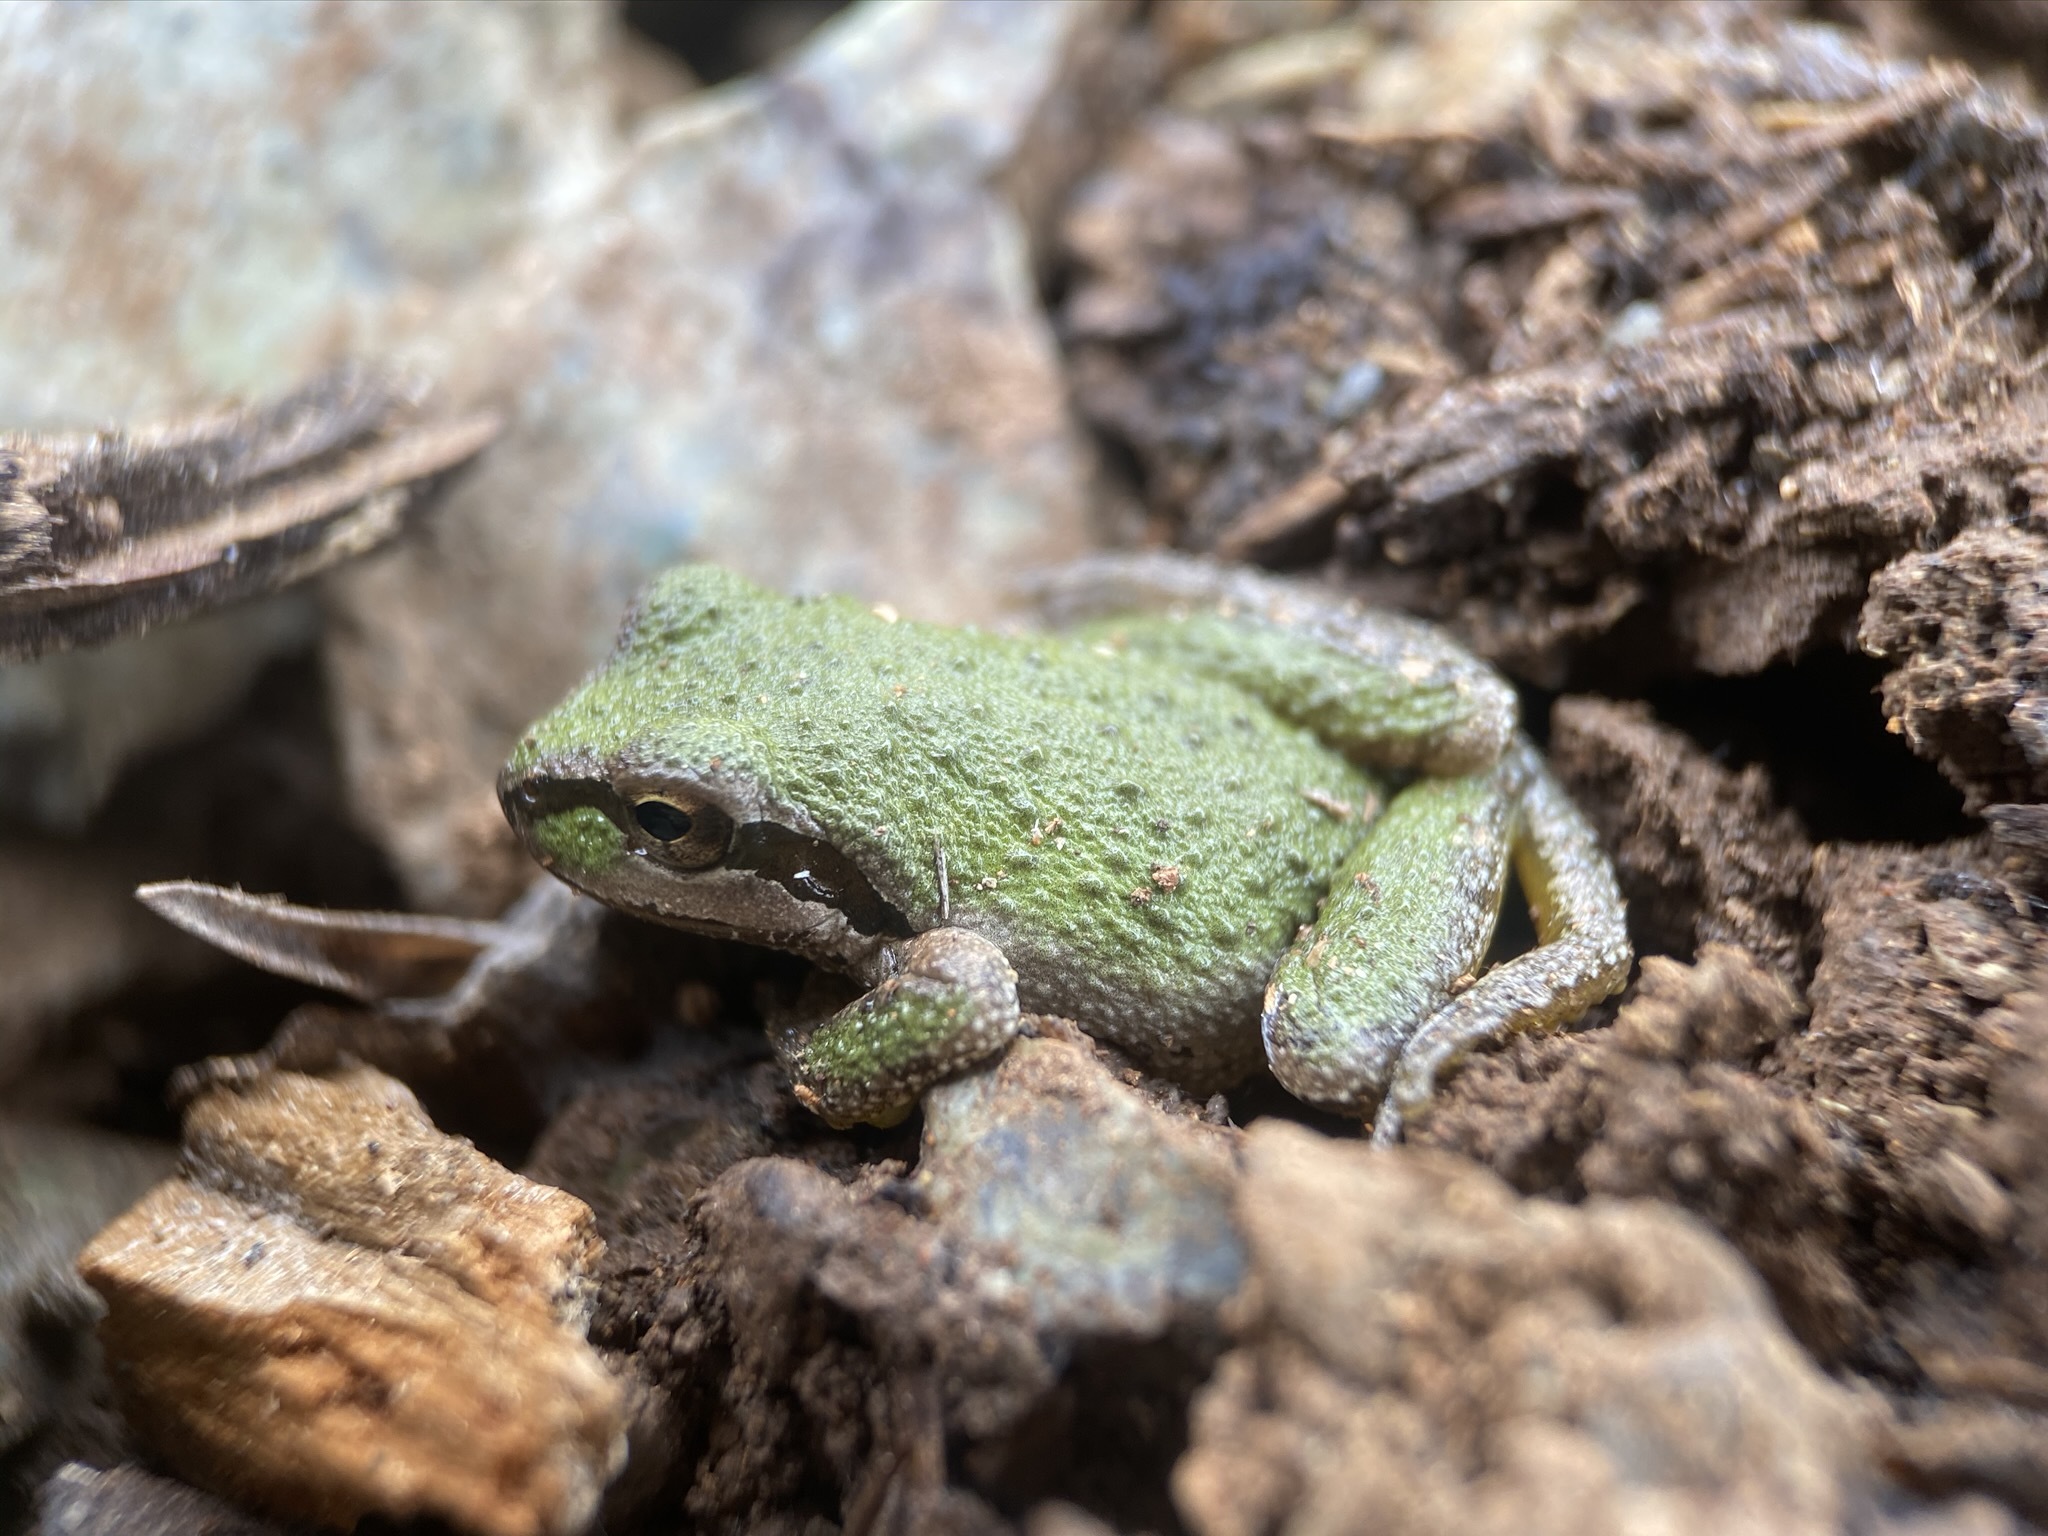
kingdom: Animalia
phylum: Chordata
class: Amphibia
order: Anura
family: Hylidae
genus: Pseudacris
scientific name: Pseudacris regilla
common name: Pacific chorus frog
